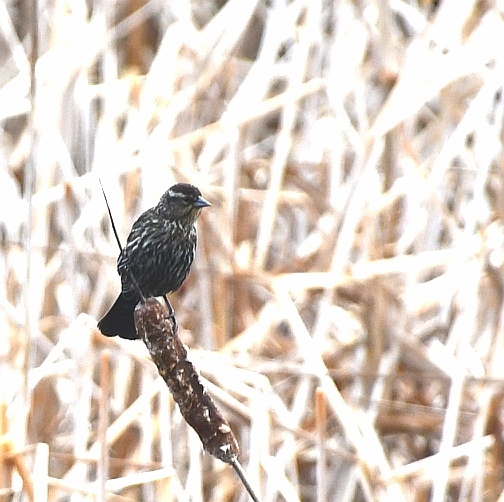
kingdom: Animalia
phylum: Chordata
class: Aves
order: Passeriformes
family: Icteridae
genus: Agelaius
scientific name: Agelaius phoeniceus
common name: Red-winged blackbird
